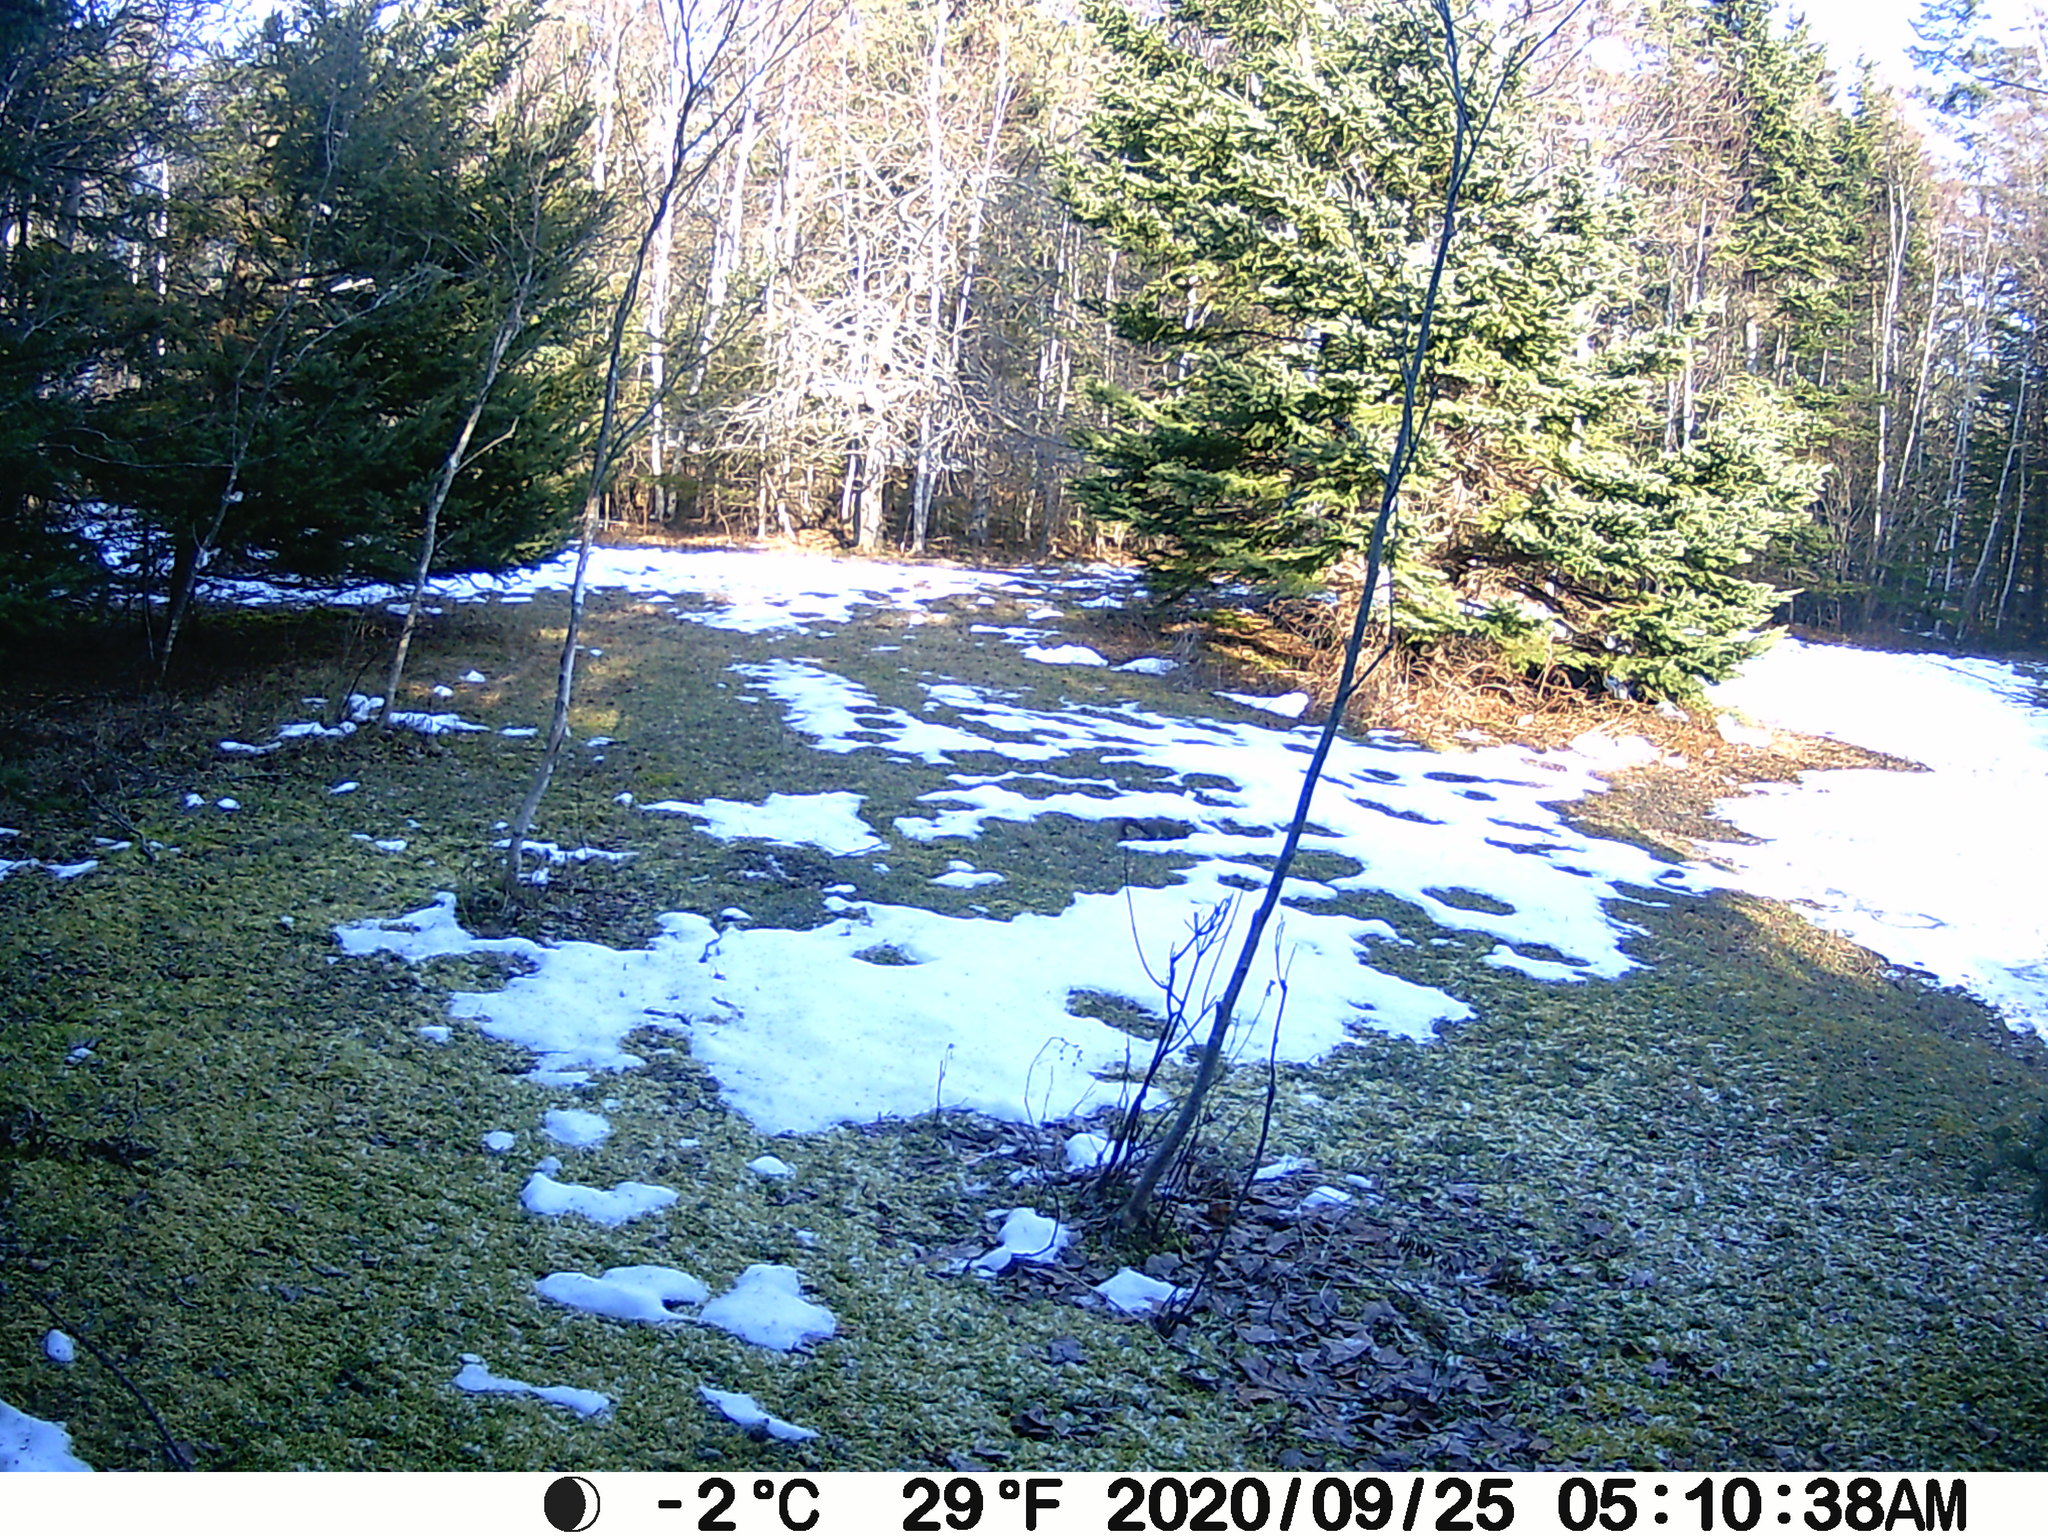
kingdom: Animalia
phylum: Chordata
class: Mammalia
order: Rodentia
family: Sciuridae
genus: Tamiasciurus
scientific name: Tamiasciurus hudsonicus
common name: Red squirrel
